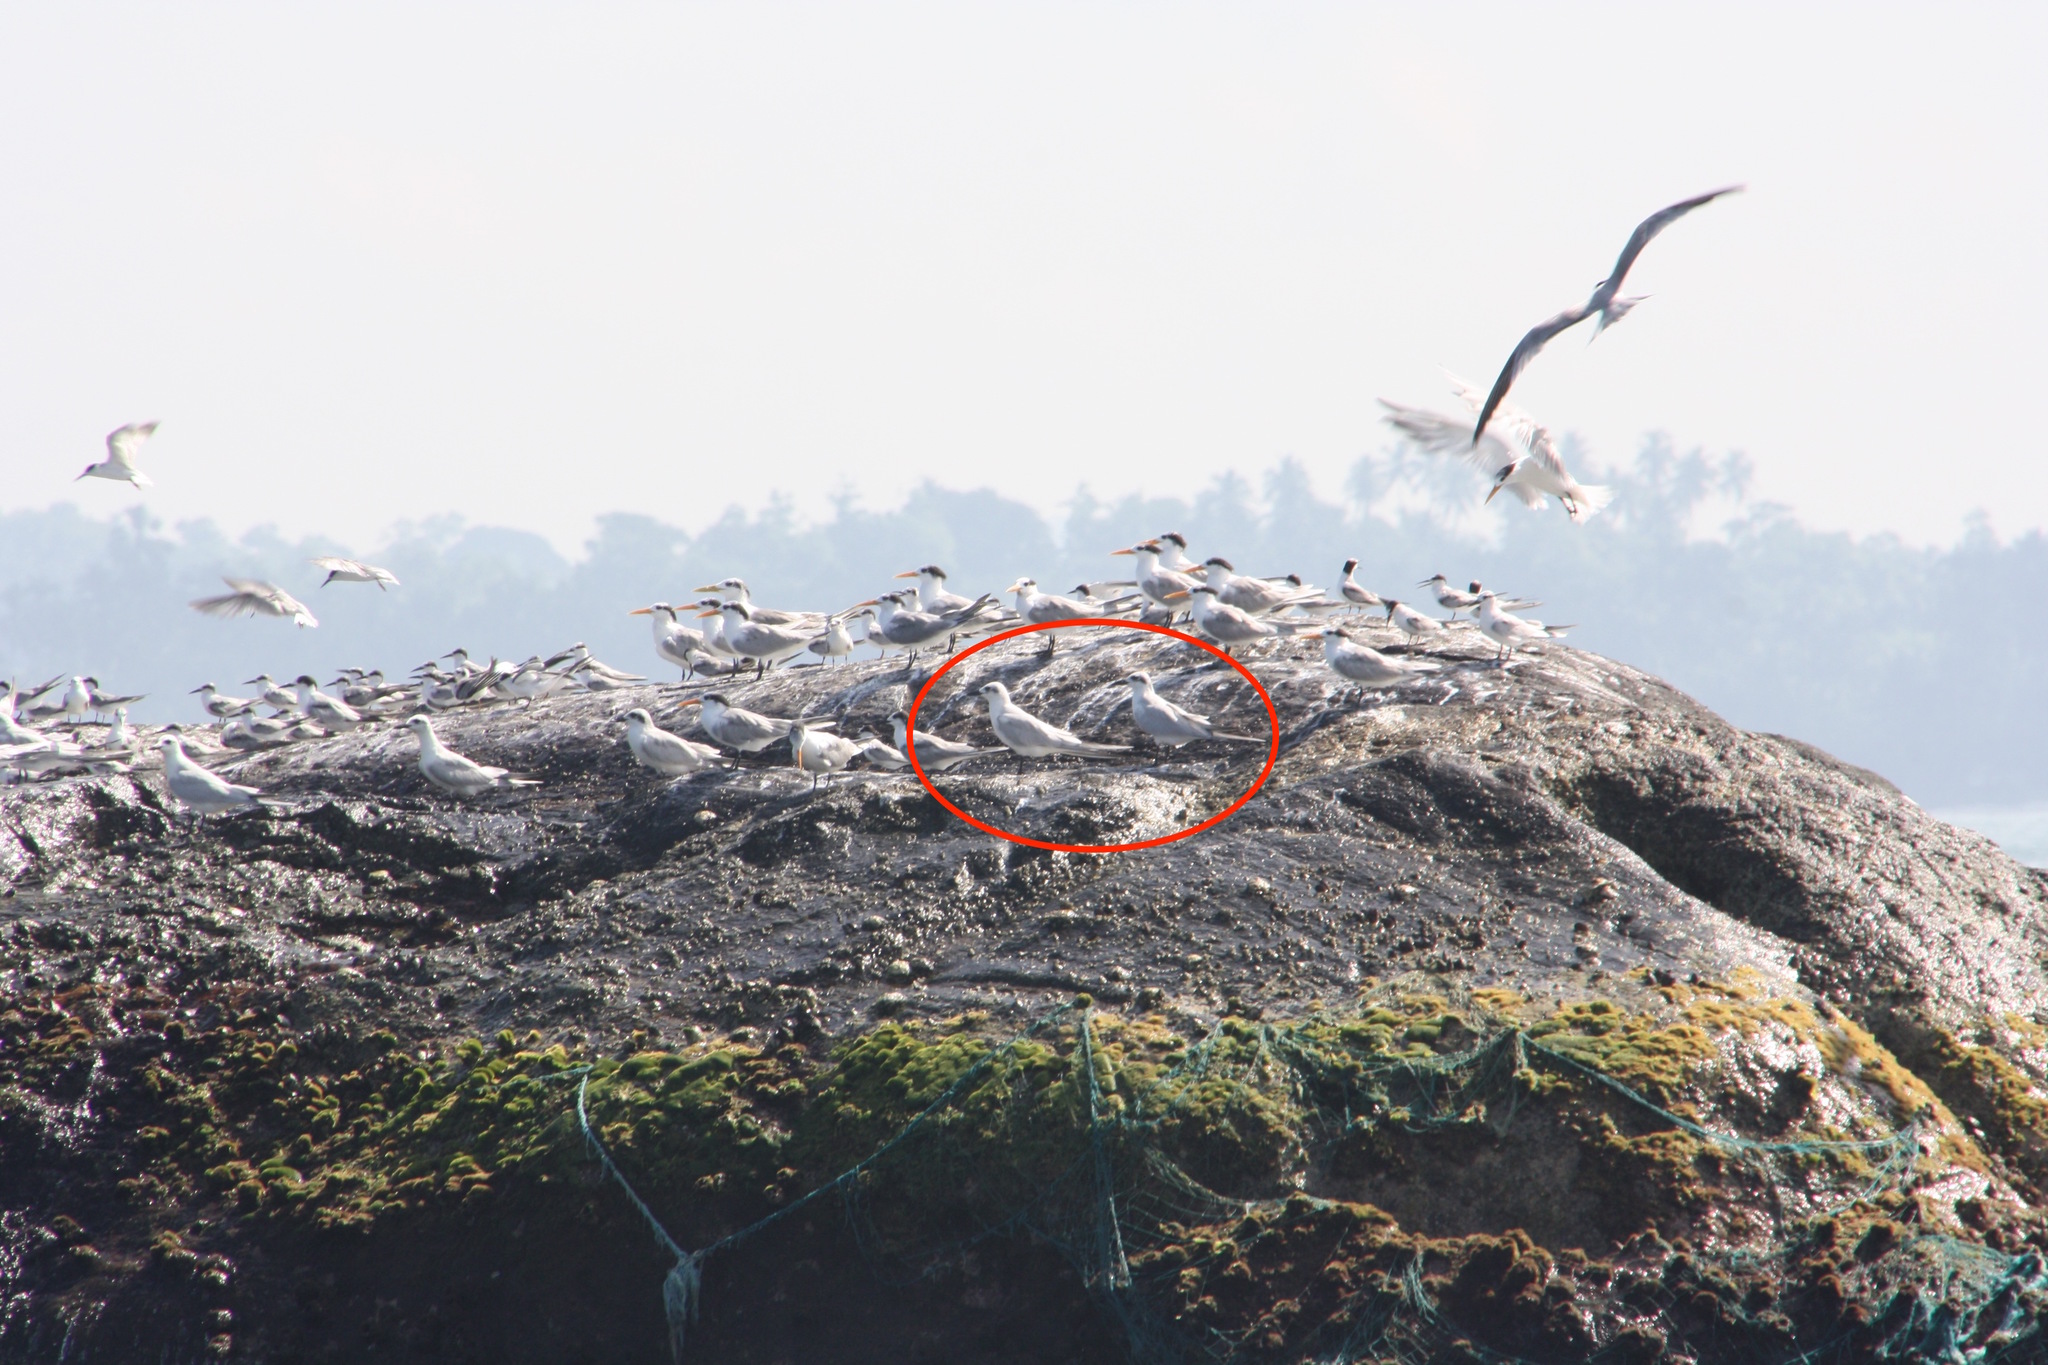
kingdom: Animalia
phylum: Chordata
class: Aves
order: Charadriiformes
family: Laridae
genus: Chlidonias
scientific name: Chlidonias hybrida
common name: Whiskered tern
